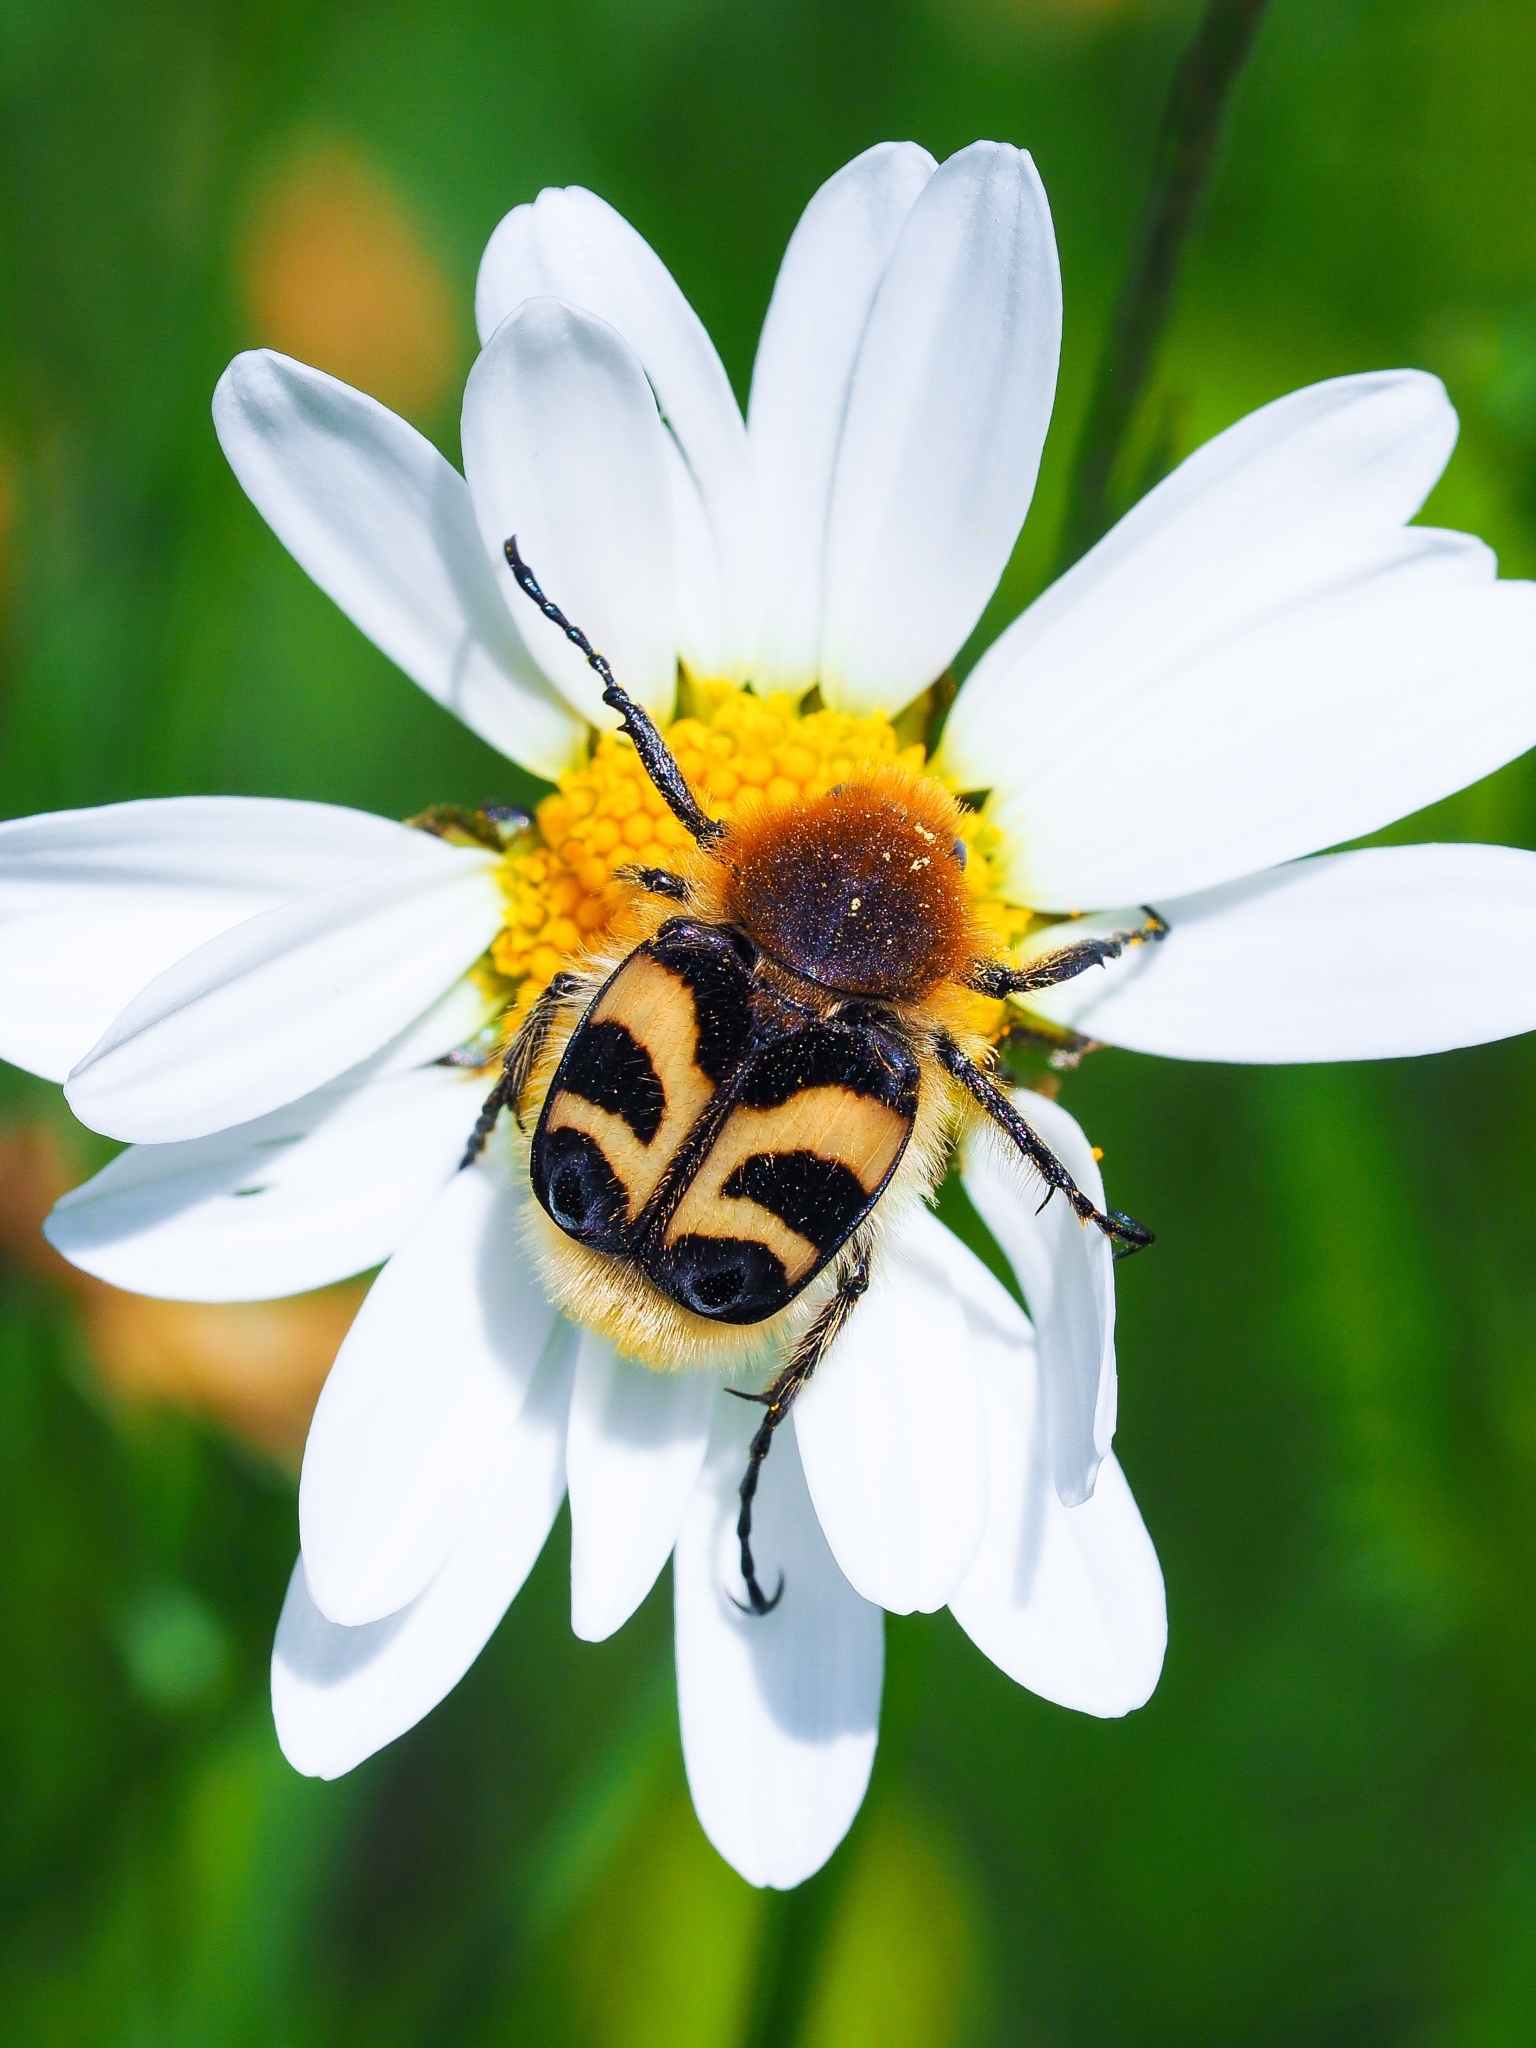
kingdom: Animalia
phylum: Arthropoda
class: Insecta
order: Coleoptera
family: Scarabaeidae
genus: Trichius
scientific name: Trichius fasciatus
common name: Bee beetle
